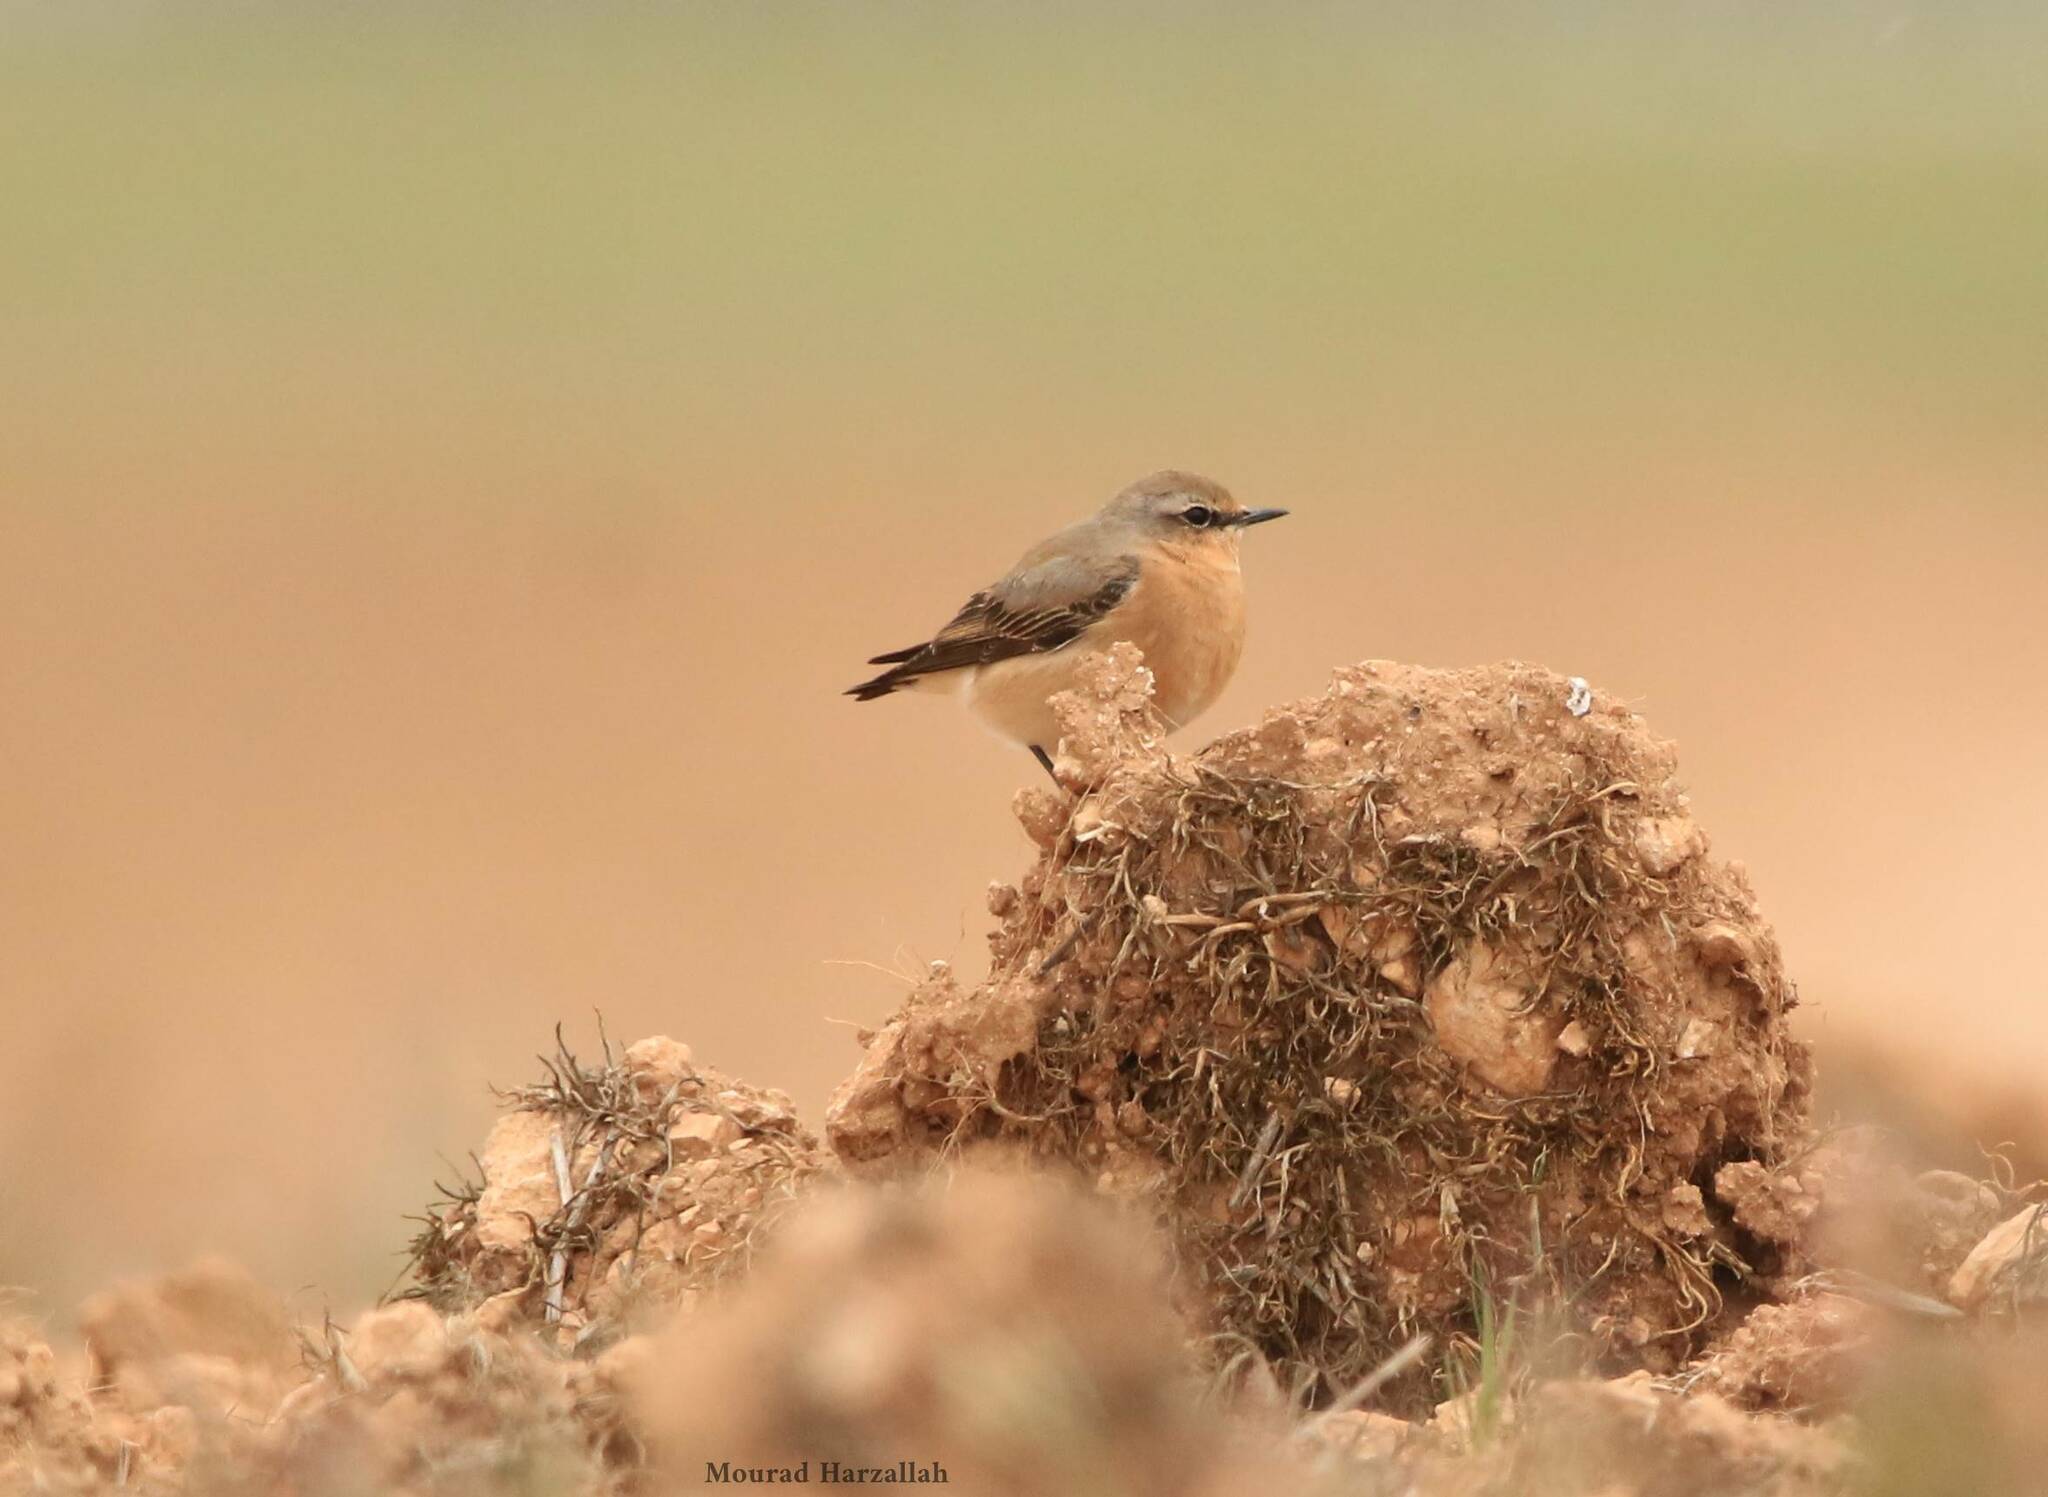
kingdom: Animalia
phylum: Chordata
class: Aves
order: Passeriformes
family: Muscicapidae
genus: Oenanthe
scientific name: Oenanthe oenanthe
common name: Northern wheatear
